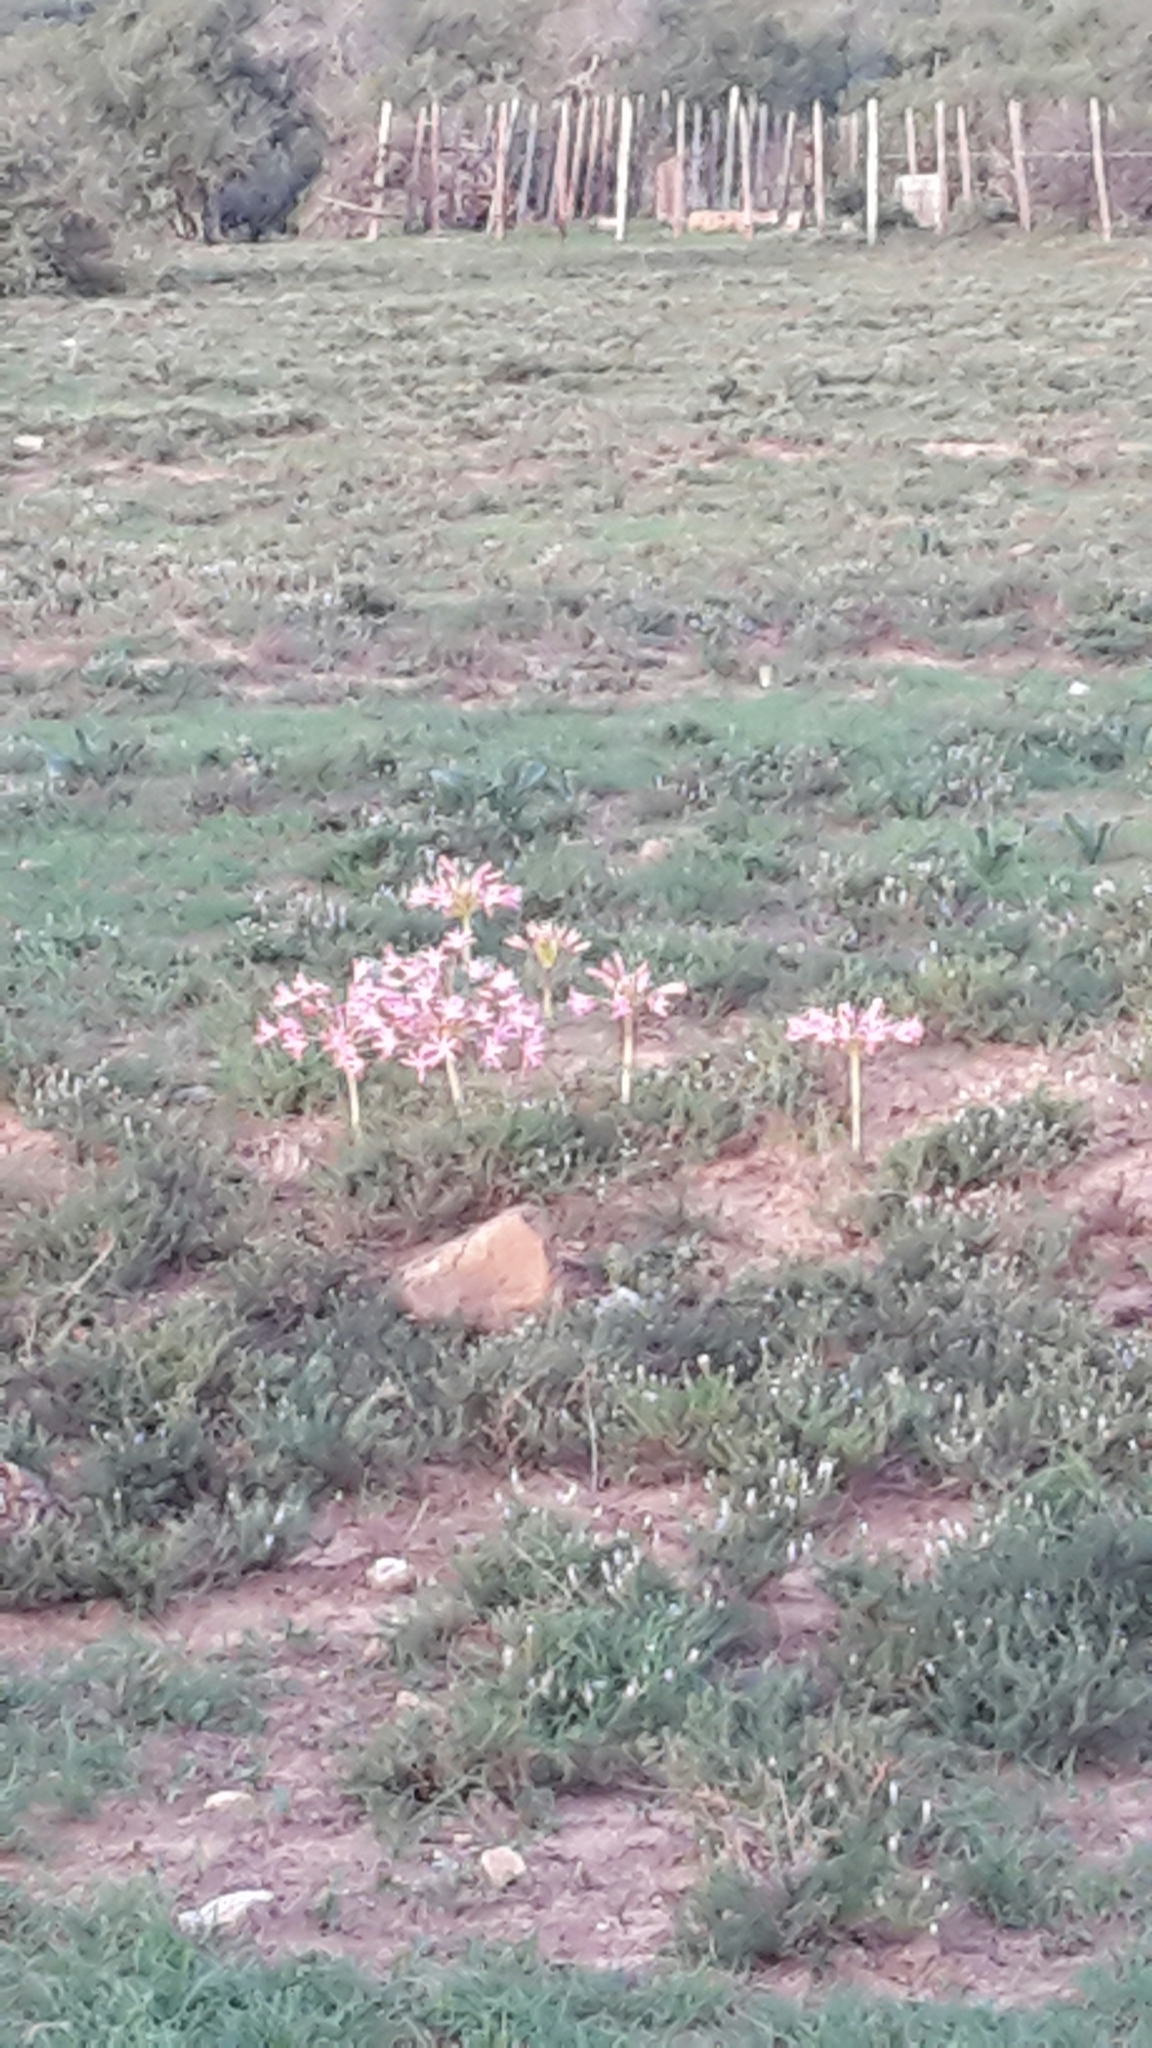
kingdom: Plantae
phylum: Tracheophyta
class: Liliopsida
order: Asparagales
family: Amaryllidaceae
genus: Brunsvigia
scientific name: Brunsvigia gregaria
